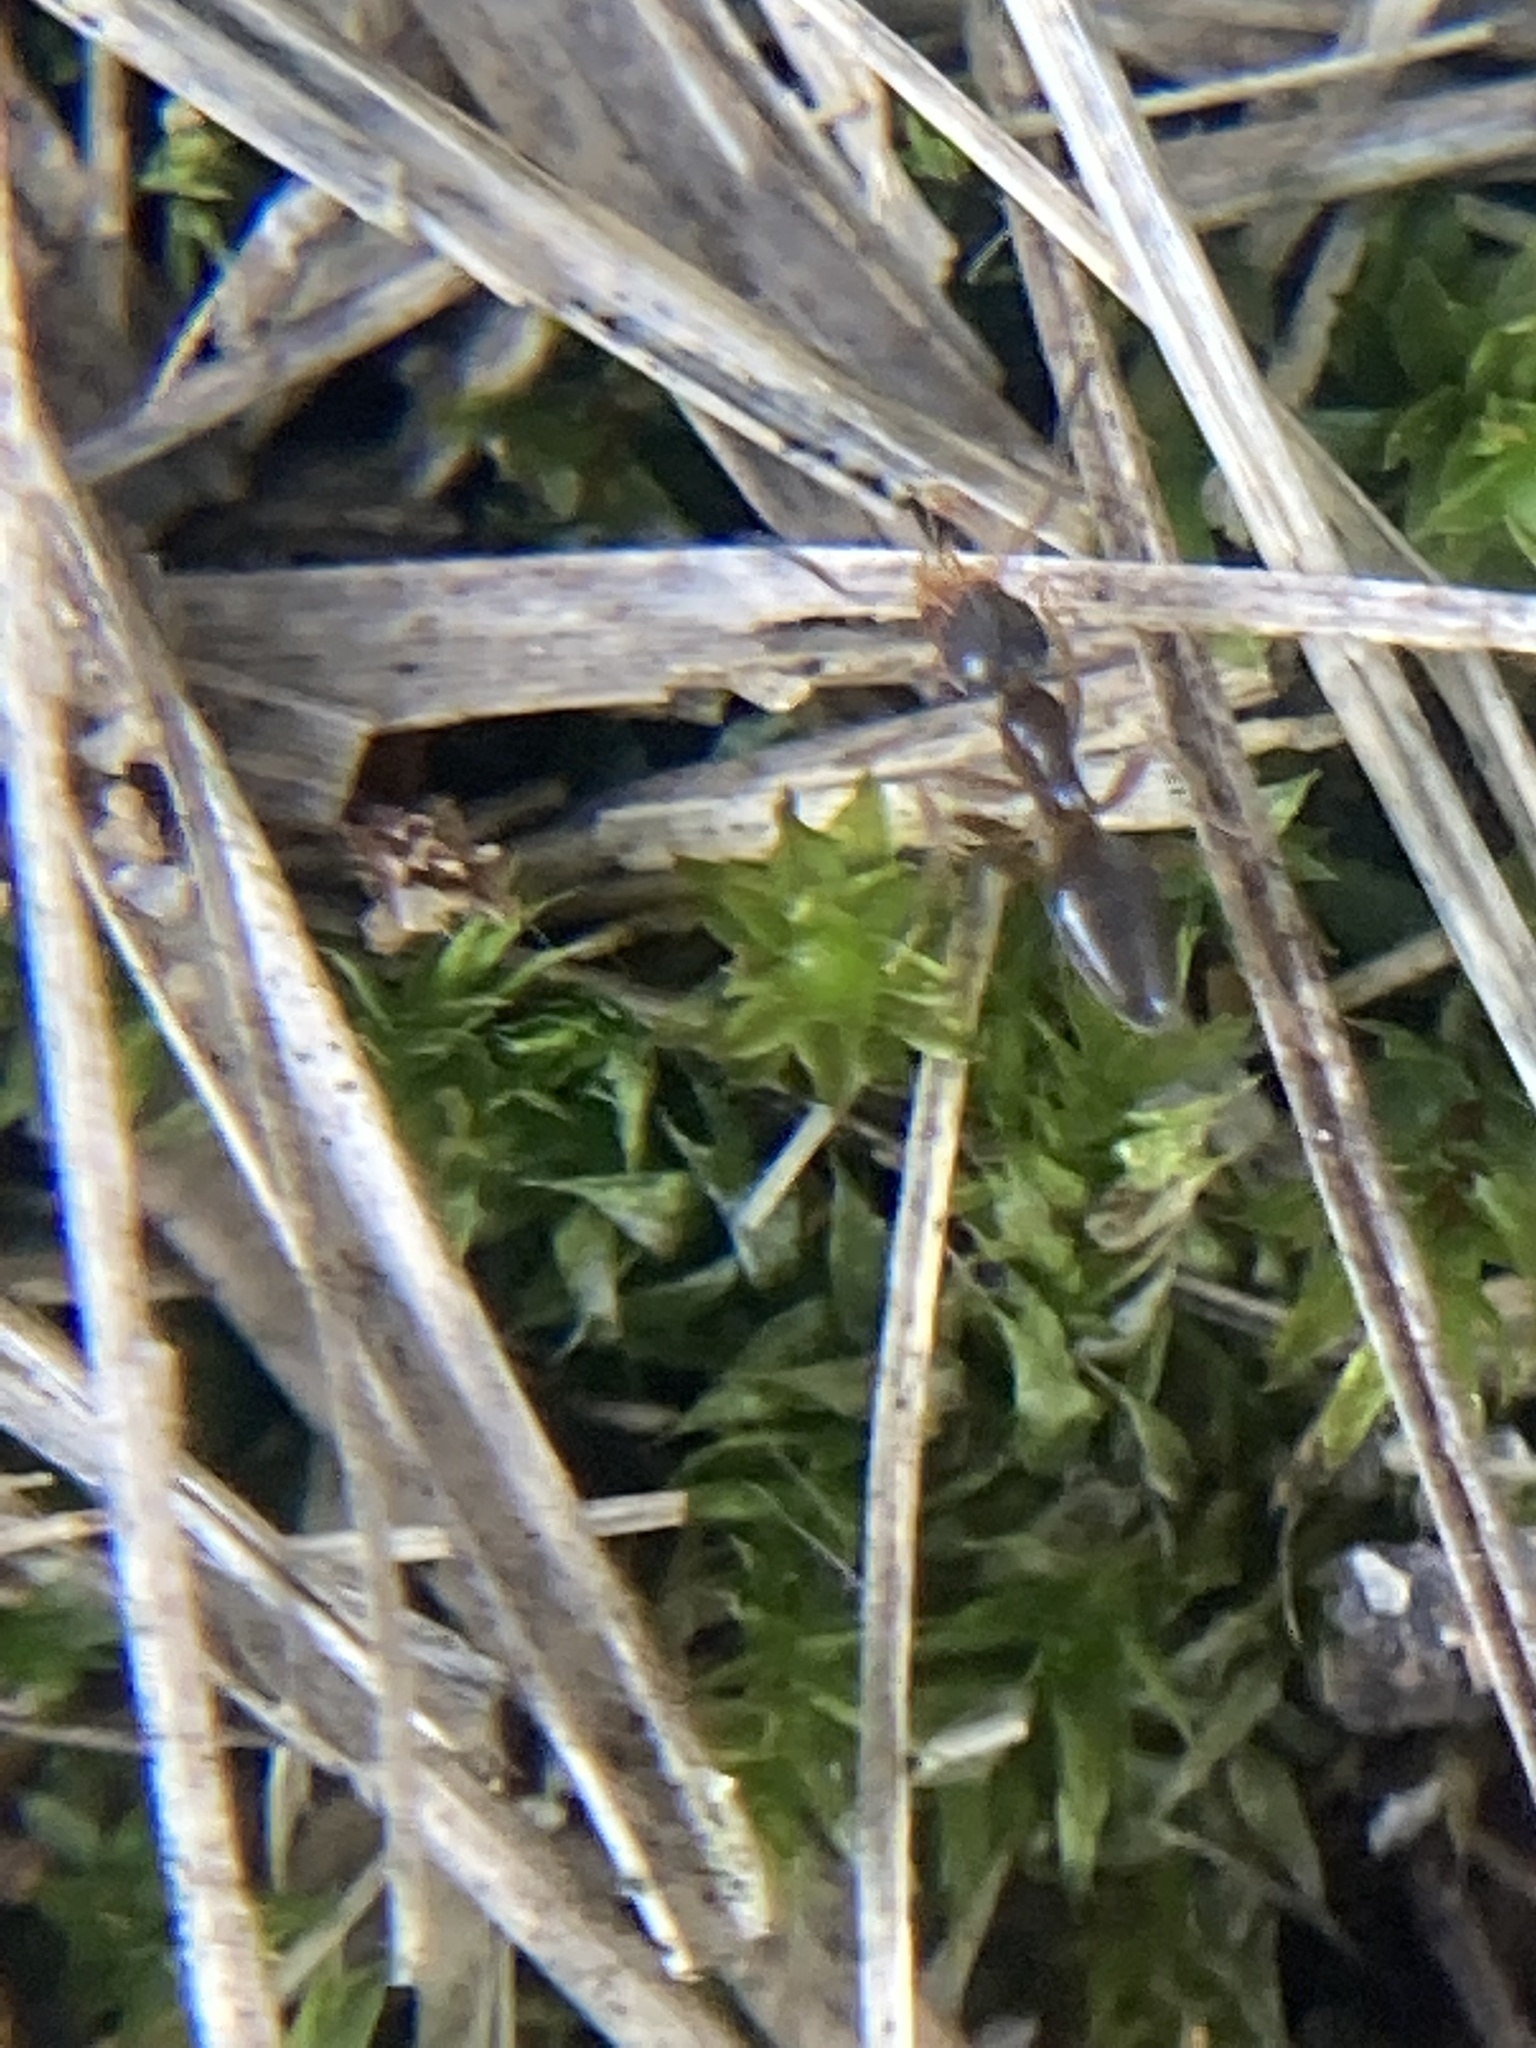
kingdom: Animalia
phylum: Arthropoda
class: Insecta
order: Hymenoptera
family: Formicidae
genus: Tapinoma
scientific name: Tapinoma sessile
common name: Odorous house ant
